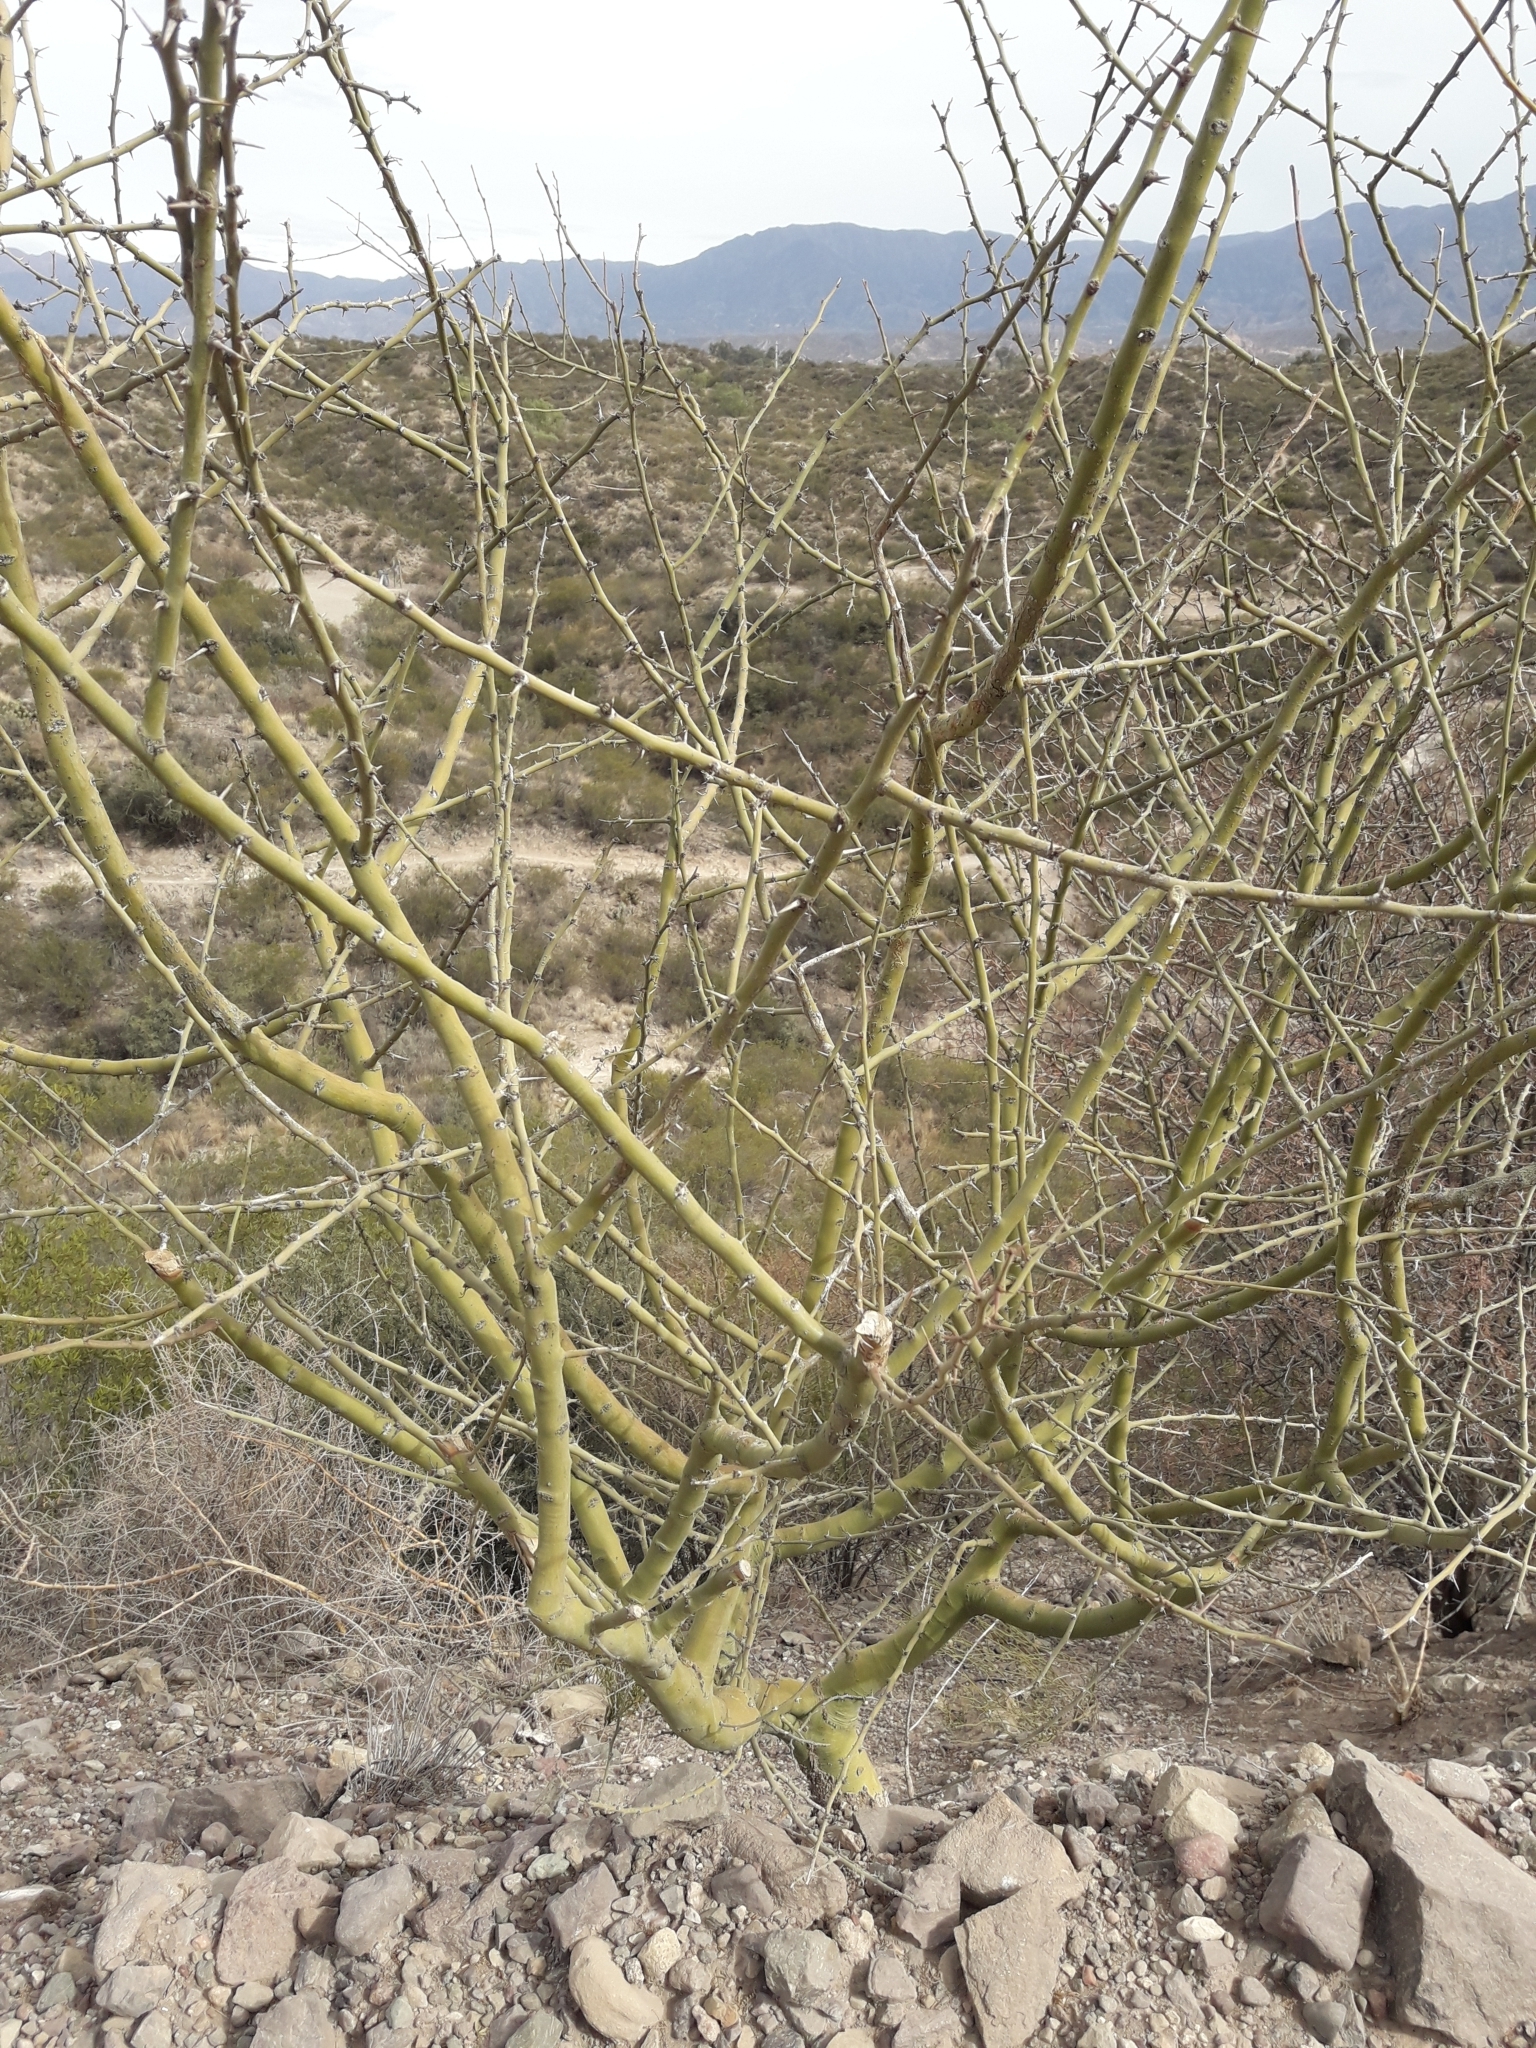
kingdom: Plantae
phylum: Tracheophyta
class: Magnoliopsida
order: Fabales
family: Fabaceae
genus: Parkinsonia
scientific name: Parkinsonia praecox
